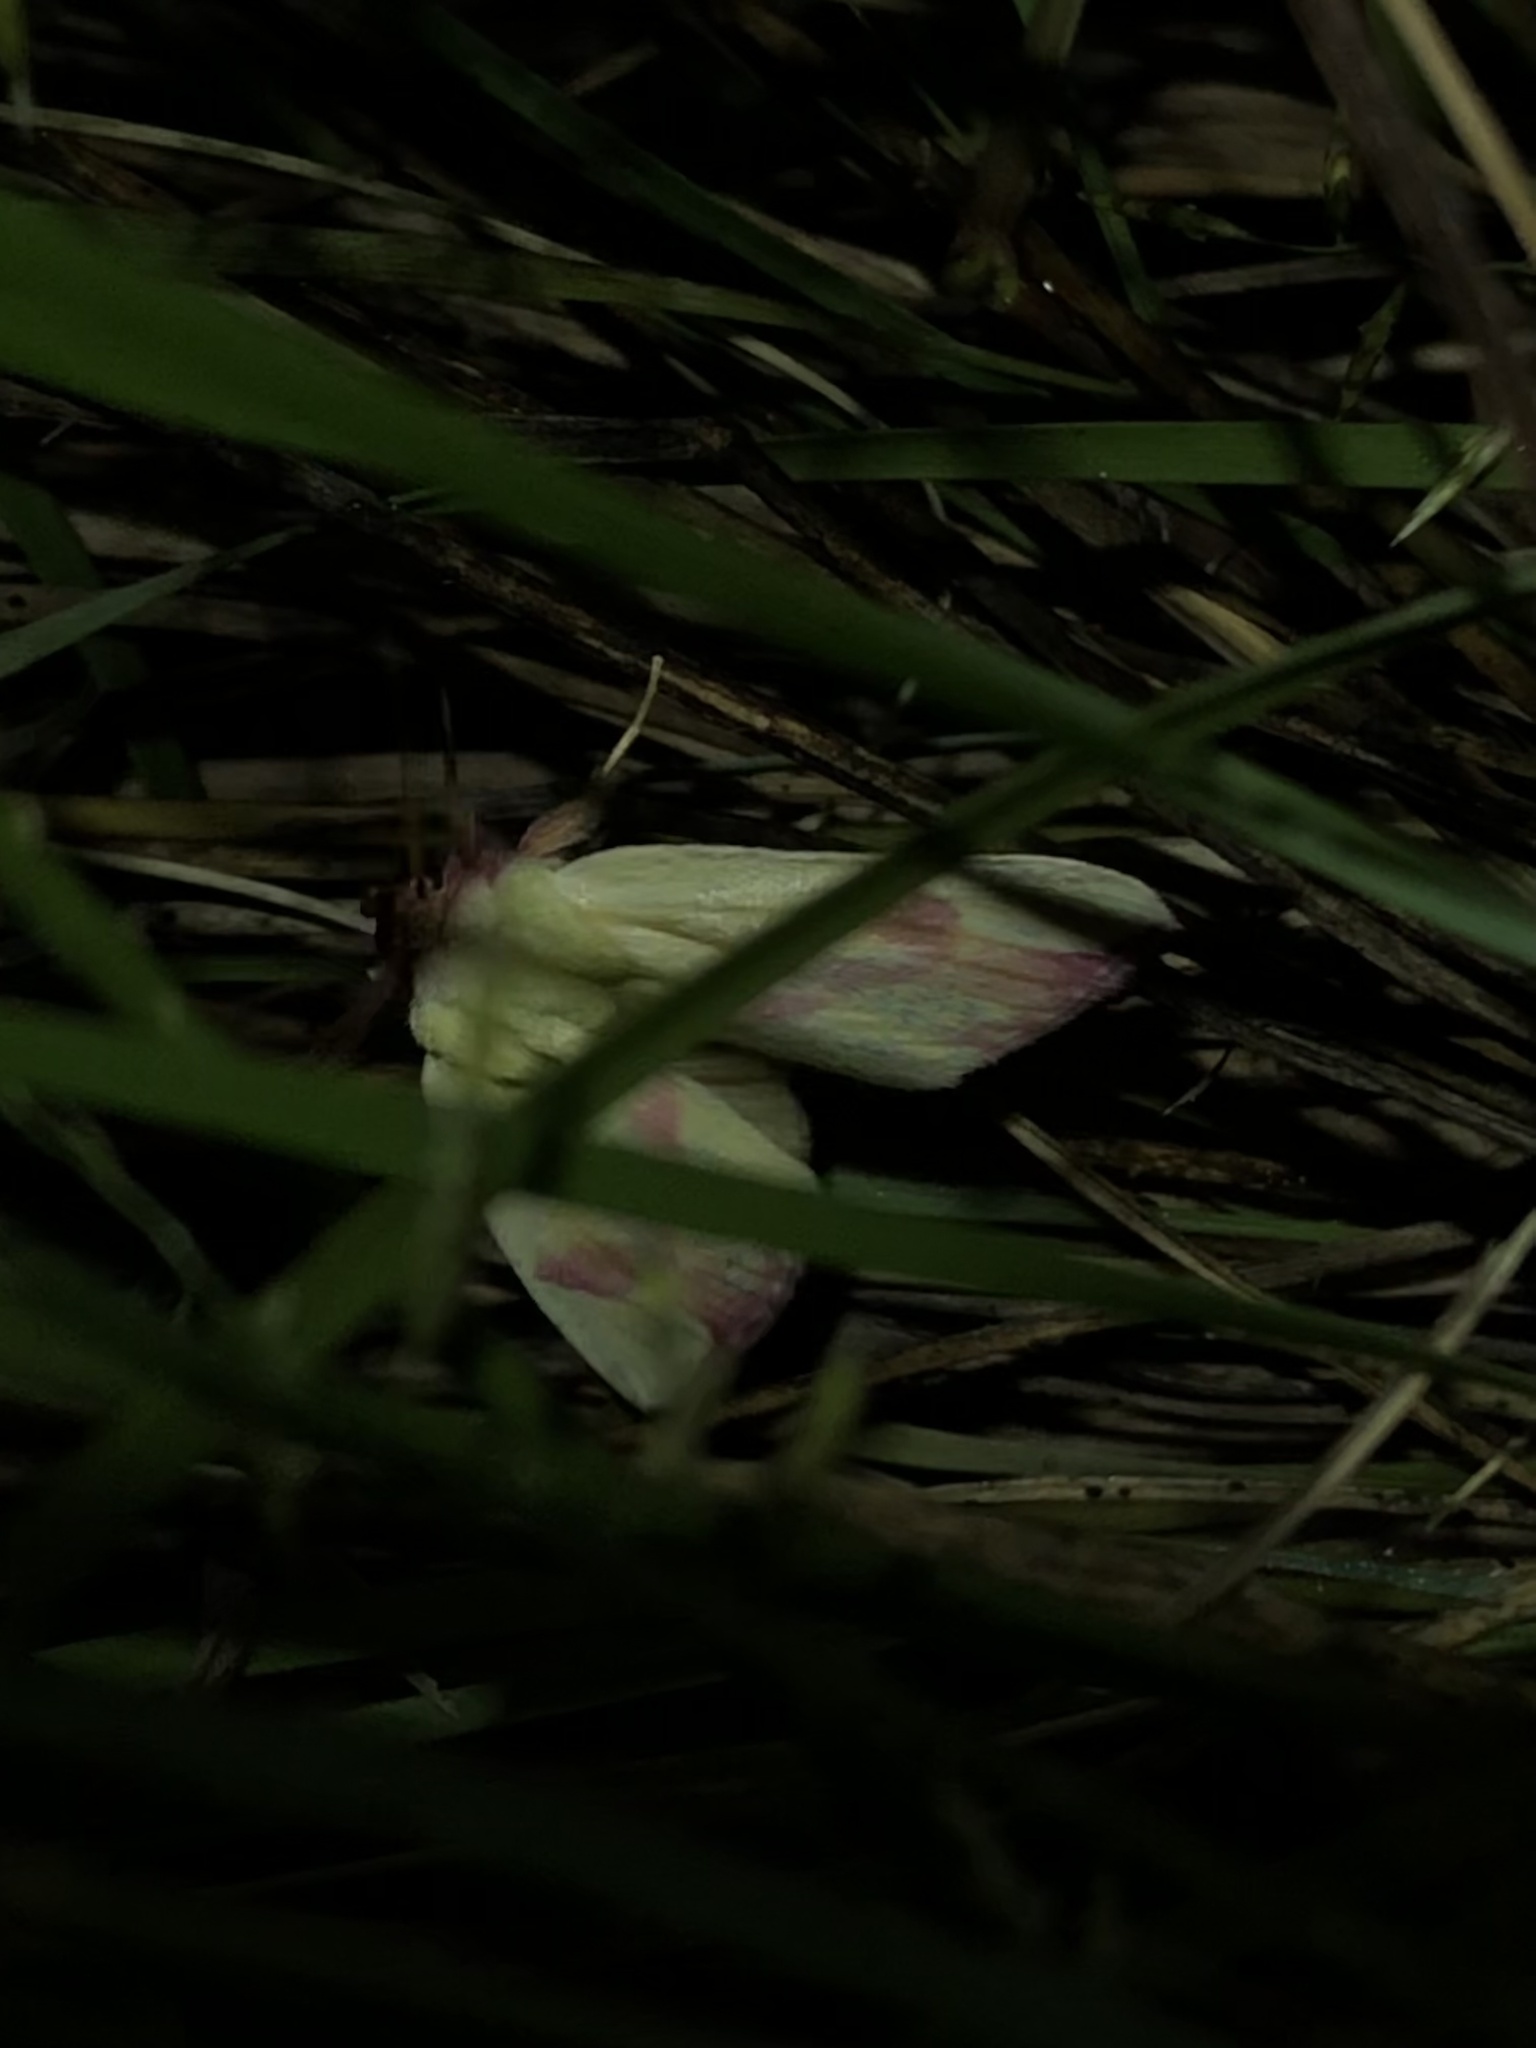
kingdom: Animalia
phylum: Arthropoda
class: Insecta
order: Lepidoptera
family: Noctuidae
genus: Thurberiphaga
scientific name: Thurberiphaga diffusa
